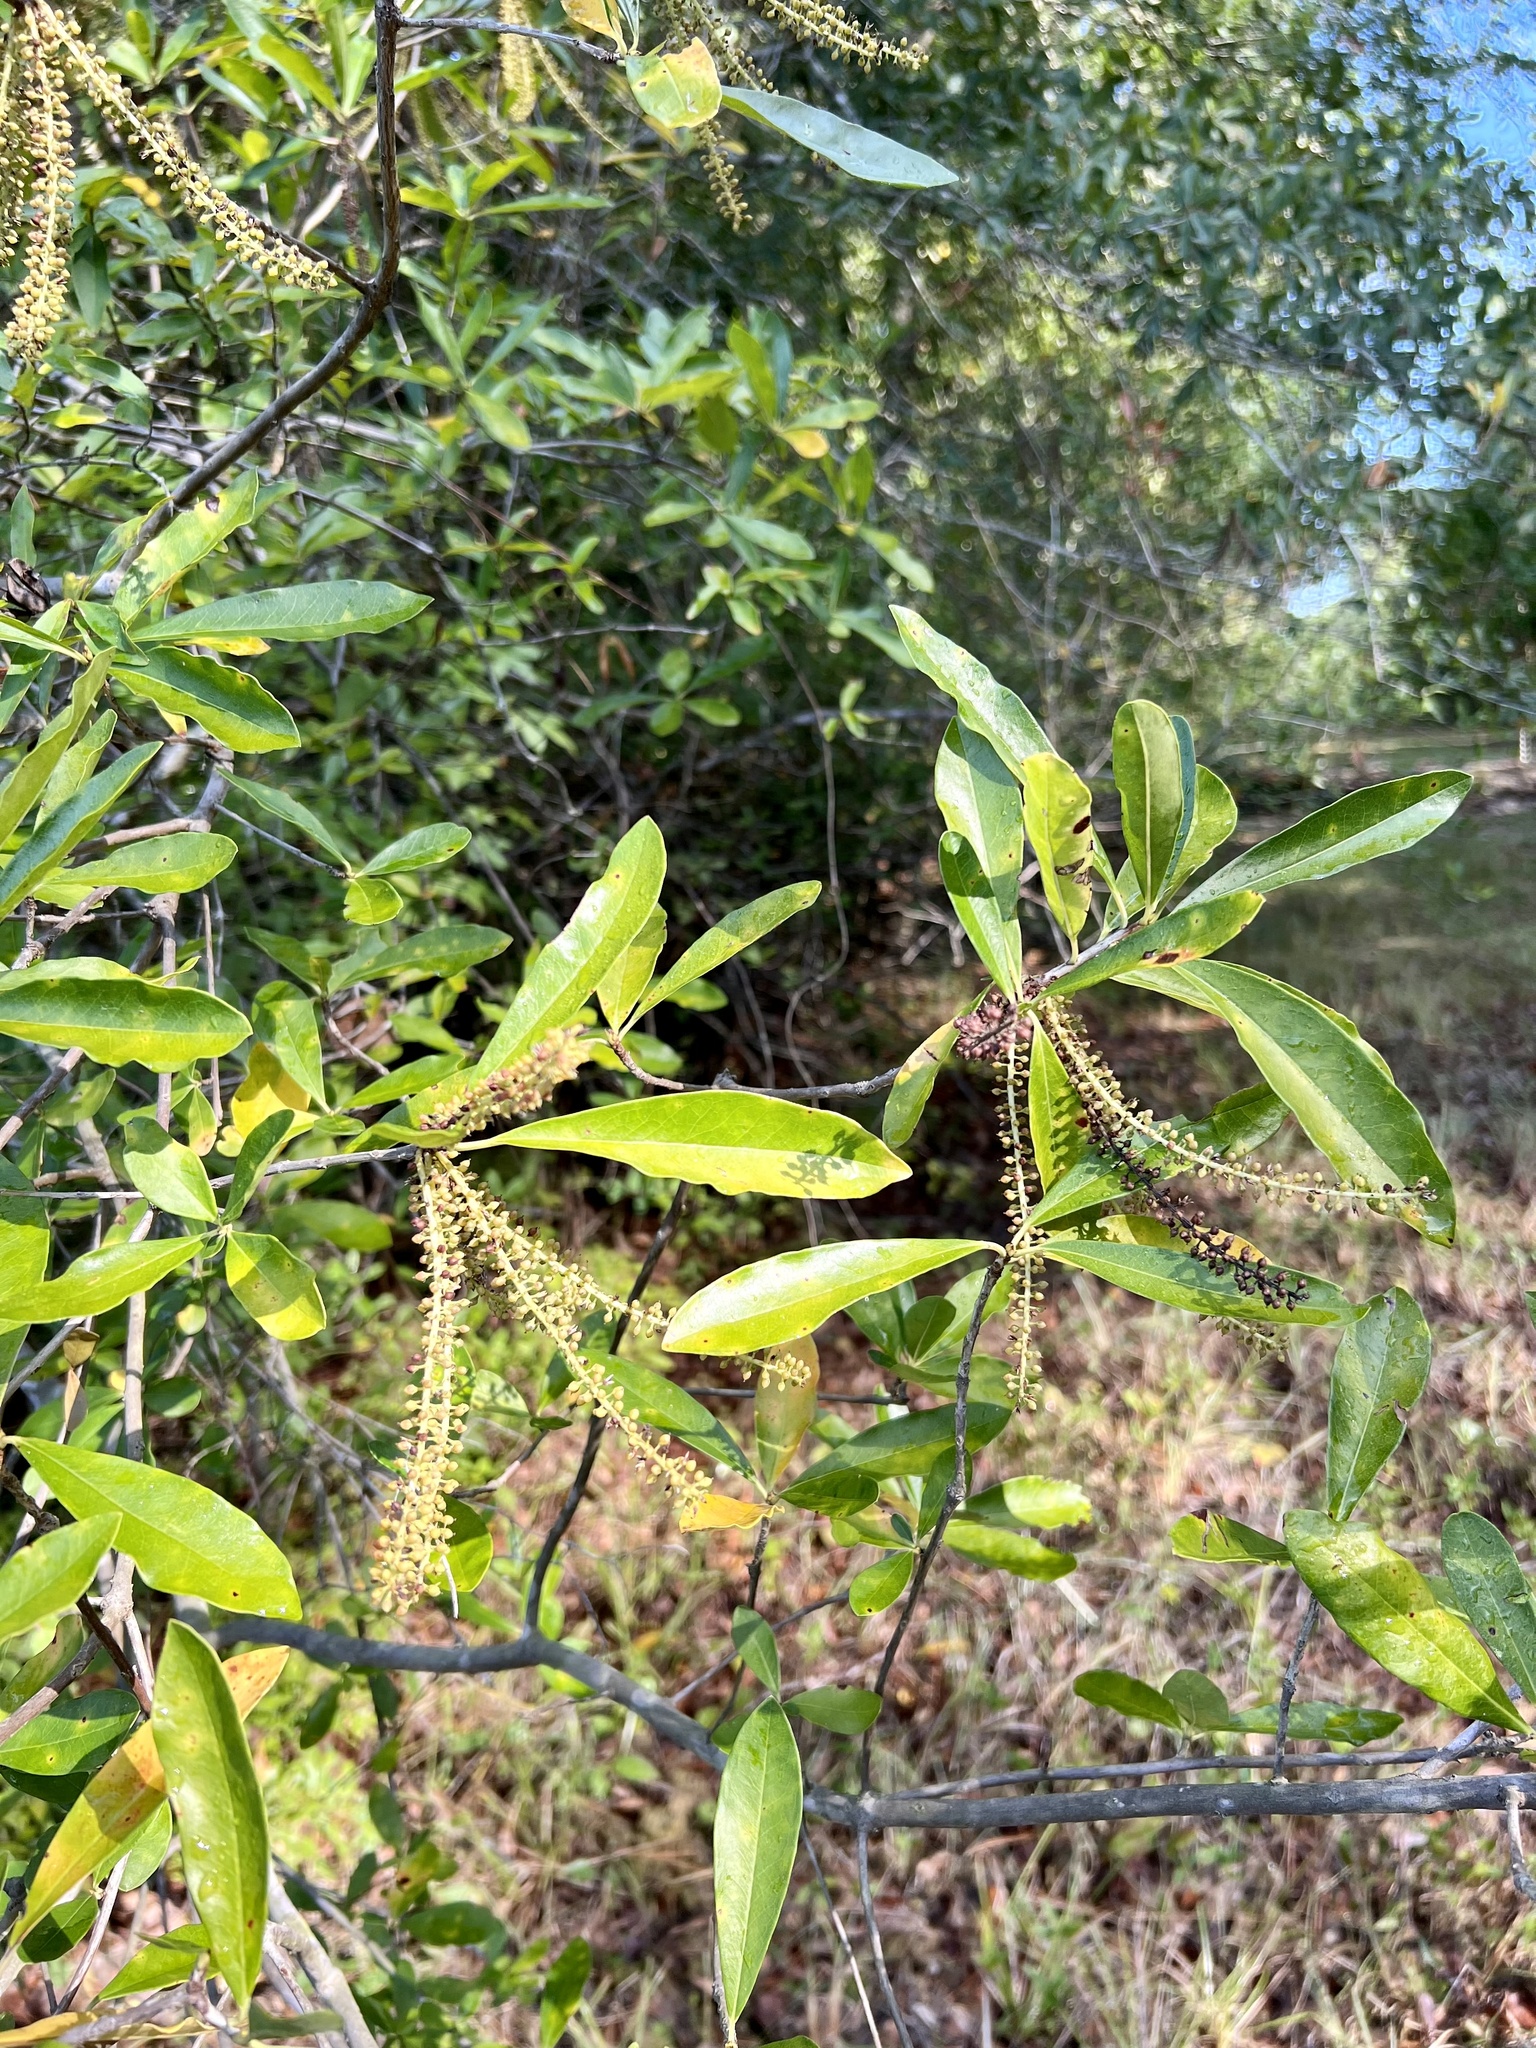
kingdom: Plantae
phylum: Tracheophyta
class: Magnoliopsida
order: Ericales
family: Cyrillaceae
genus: Cyrilla
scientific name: Cyrilla racemiflora
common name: Black titi
